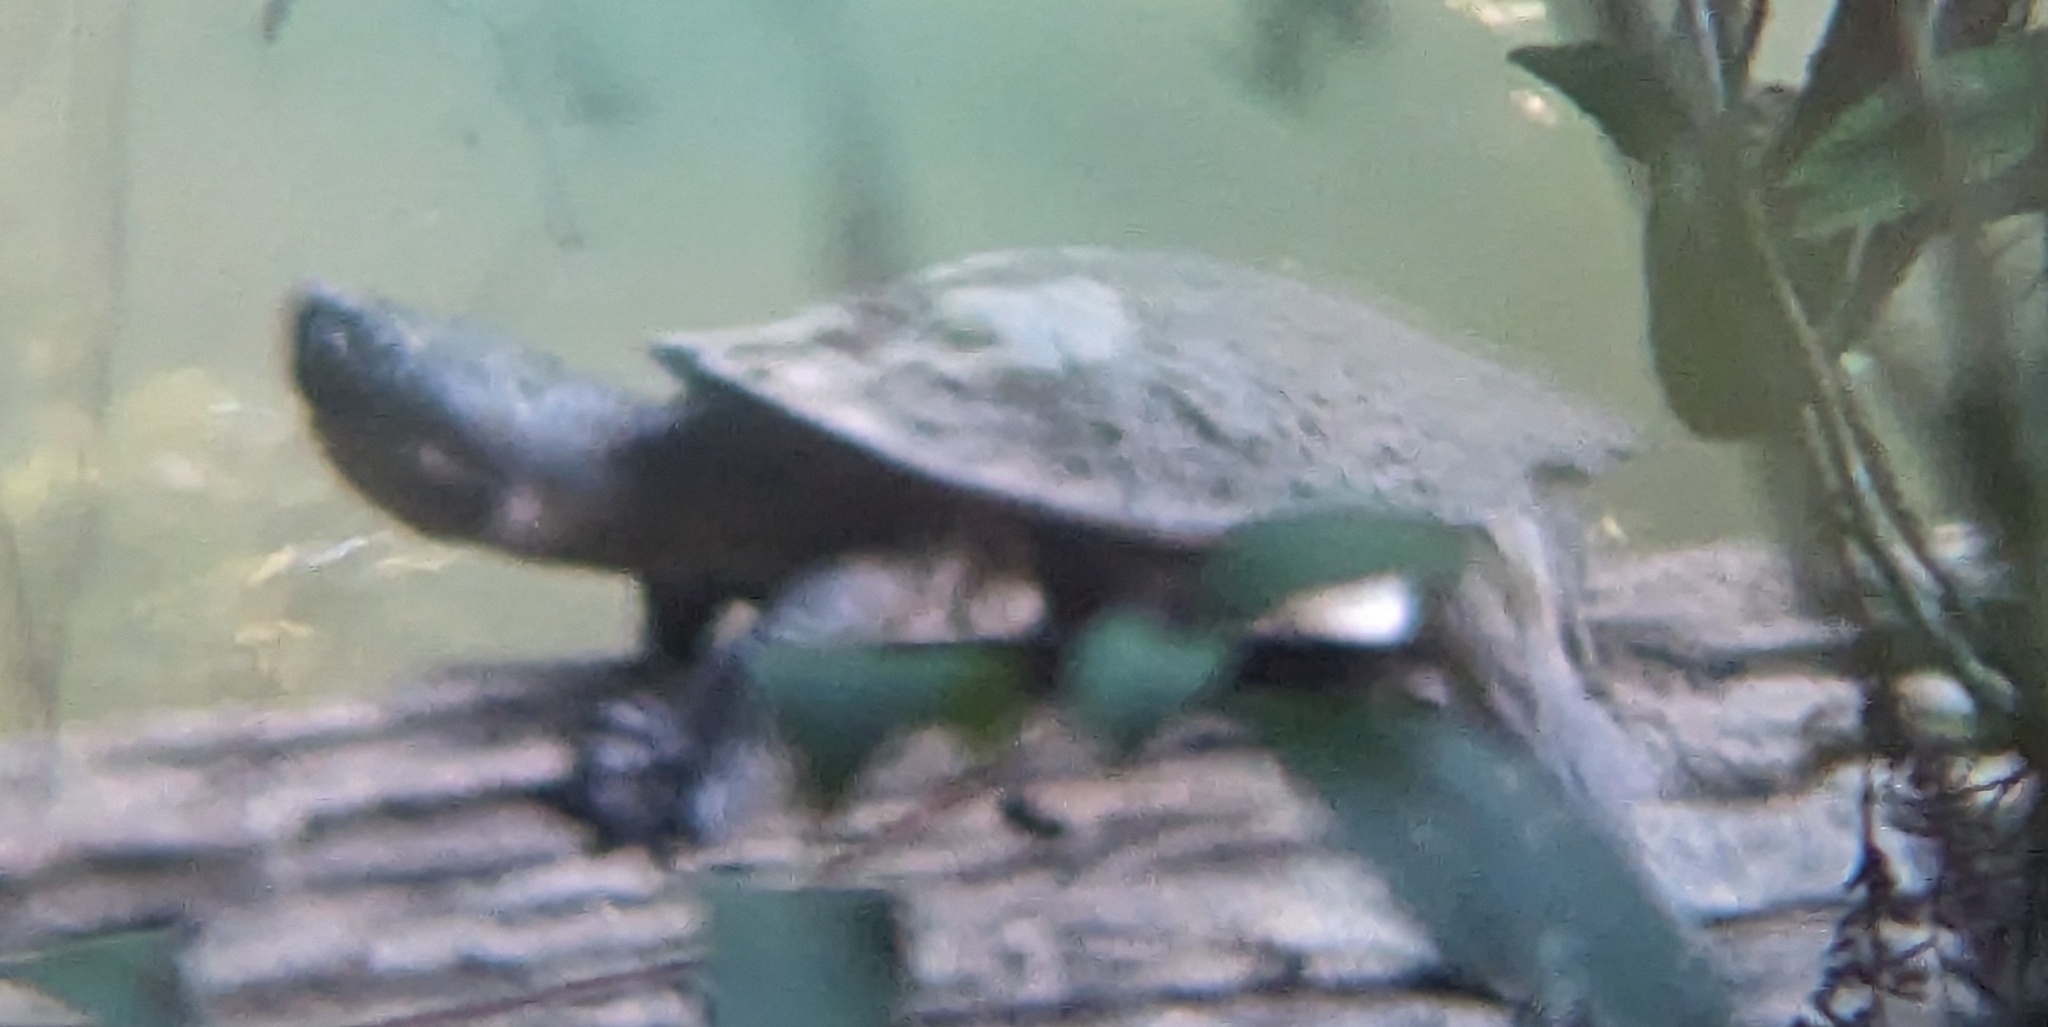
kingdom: Animalia
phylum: Chordata
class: Testudines
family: Chelidae
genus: Myuchelys
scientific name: Myuchelys latisternum
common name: Serrated snapping turtle
